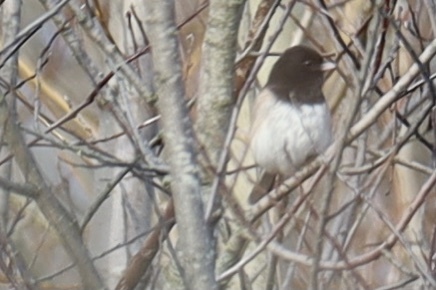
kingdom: Animalia
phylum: Chordata
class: Aves
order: Passeriformes
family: Passerellidae
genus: Junco
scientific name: Junco hyemalis
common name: Dark-eyed junco
